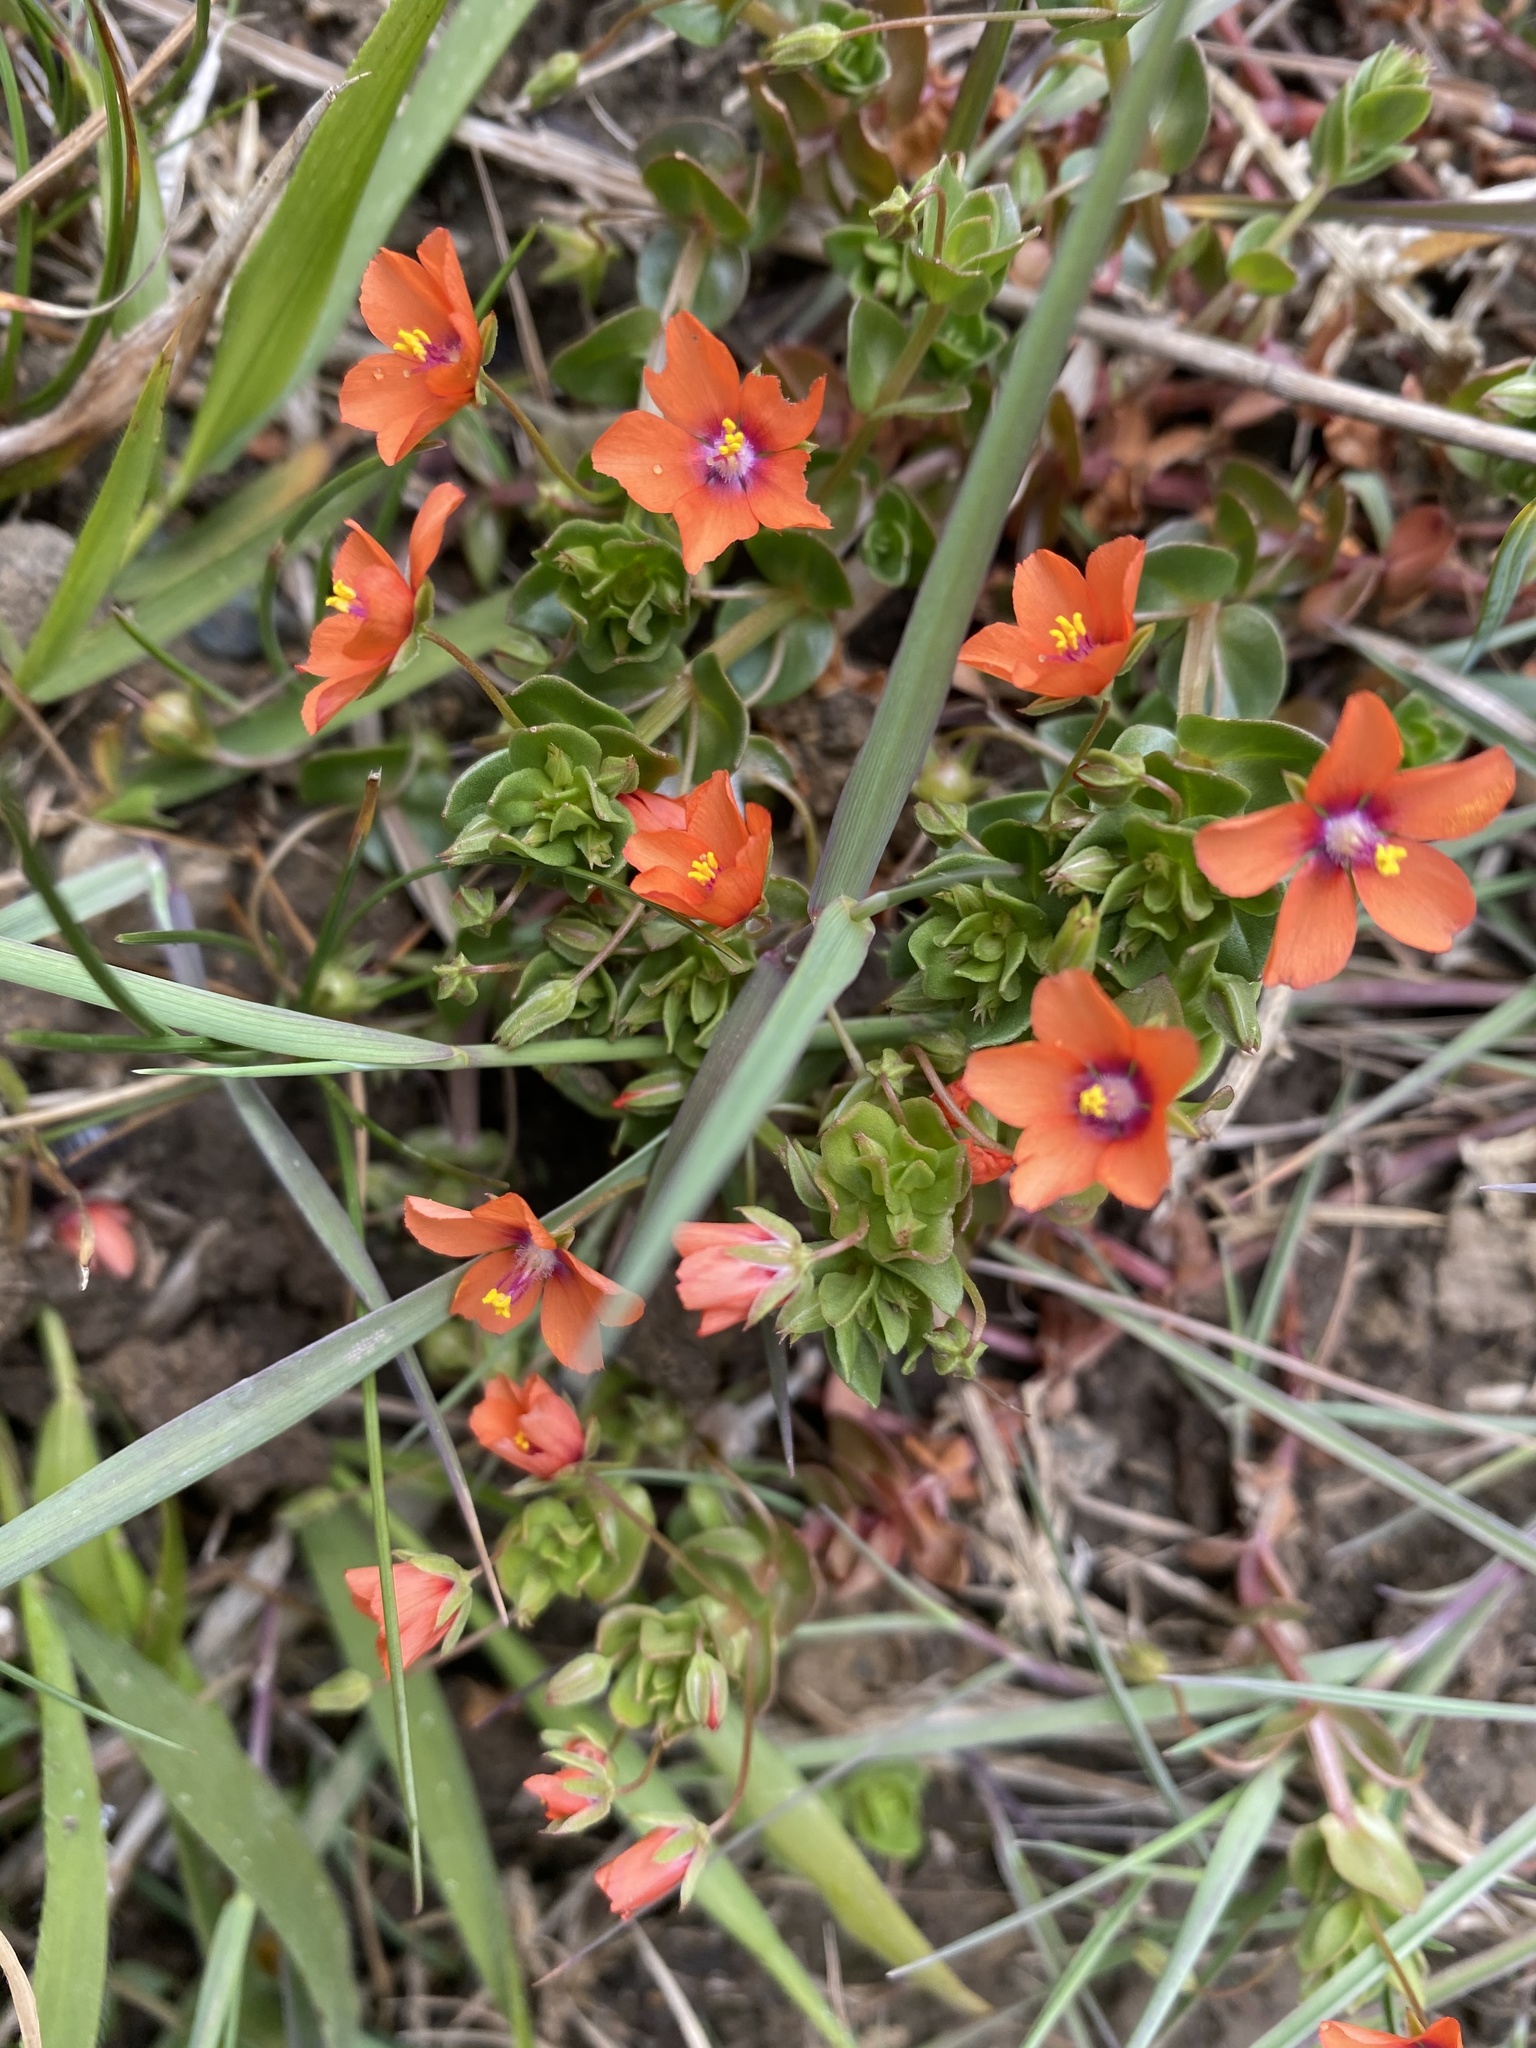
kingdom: Plantae
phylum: Tracheophyta
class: Magnoliopsida
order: Ericales
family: Primulaceae
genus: Lysimachia
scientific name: Lysimachia arvensis
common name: Scarlet pimpernel
